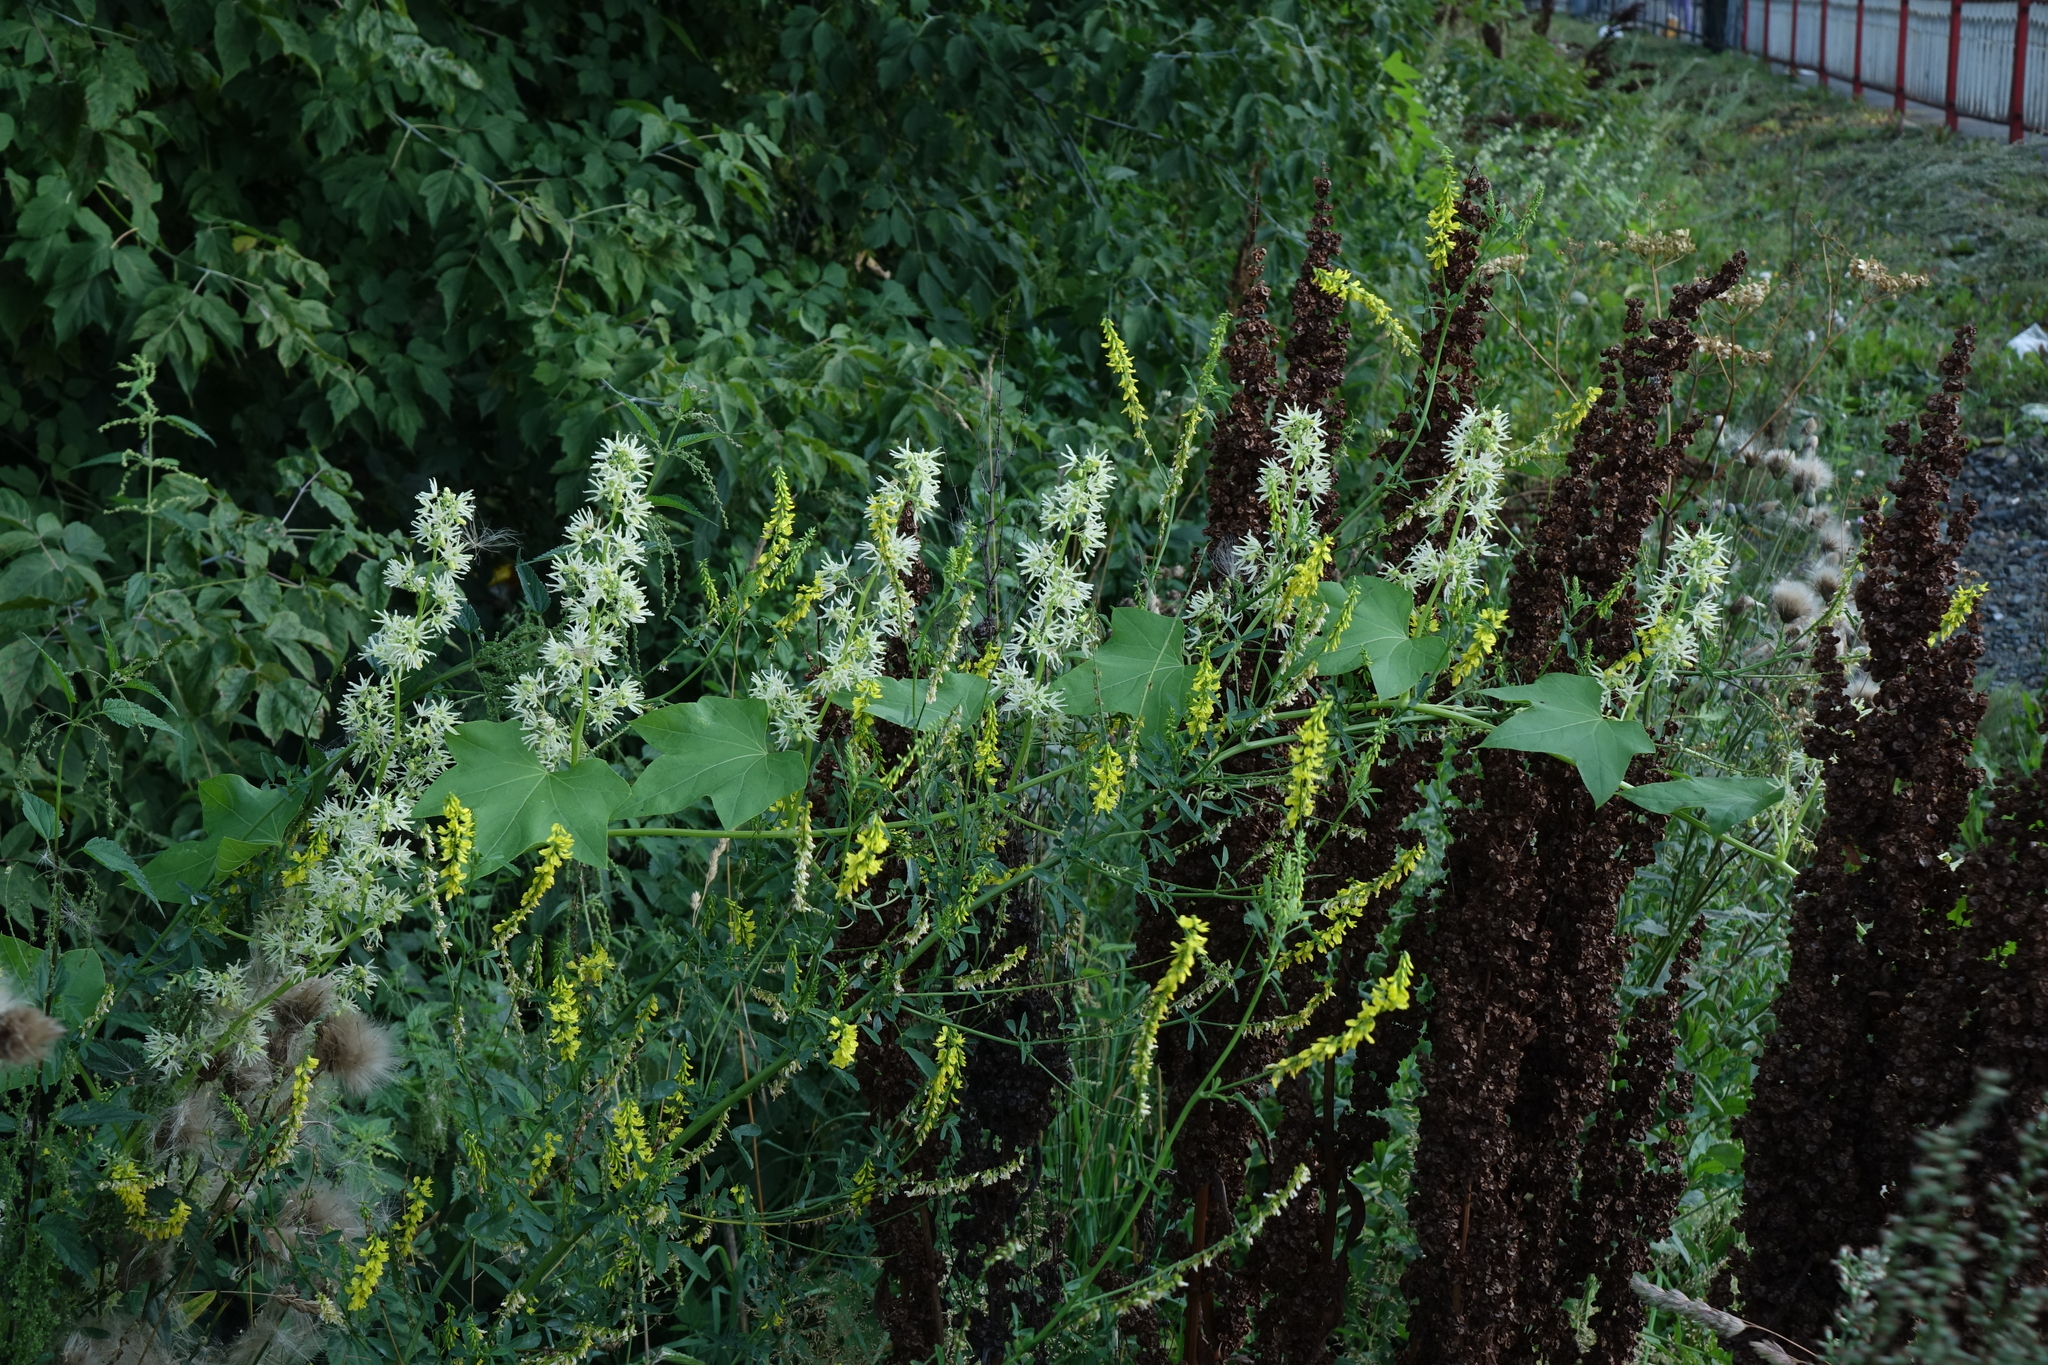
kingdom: Plantae
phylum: Tracheophyta
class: Magnoliopsida
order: Cucurbitales
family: Cucurbitaceae
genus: Echinocystis
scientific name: Echinocystis lobata
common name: Wild cucumber
